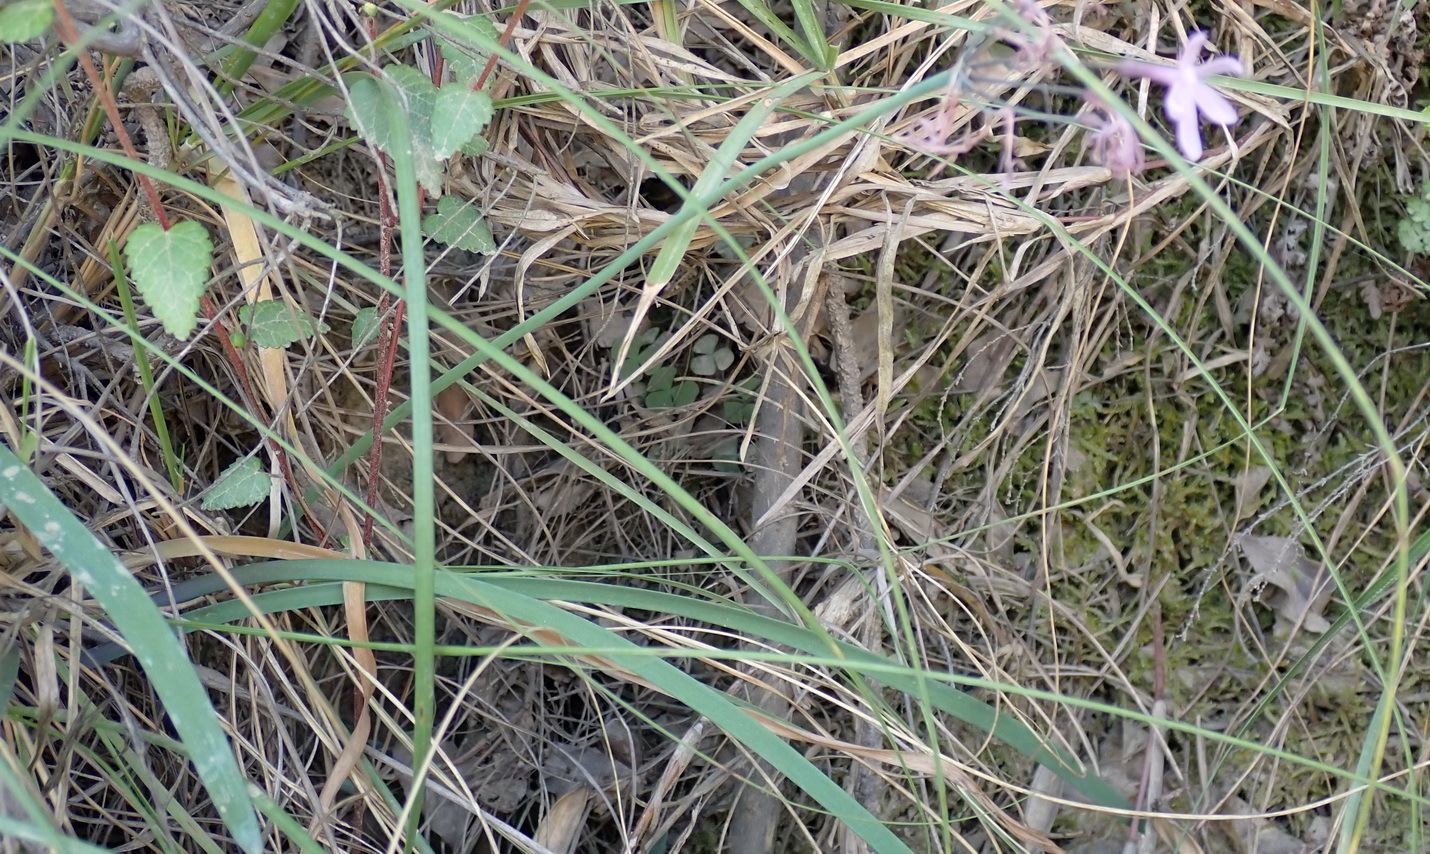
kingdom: Plantae
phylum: Tracheophyta
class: Liliopsida
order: Asparagales
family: Amaryllidaceae
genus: Tulbaghia
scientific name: Tulbaghia violacea
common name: Society garlic
